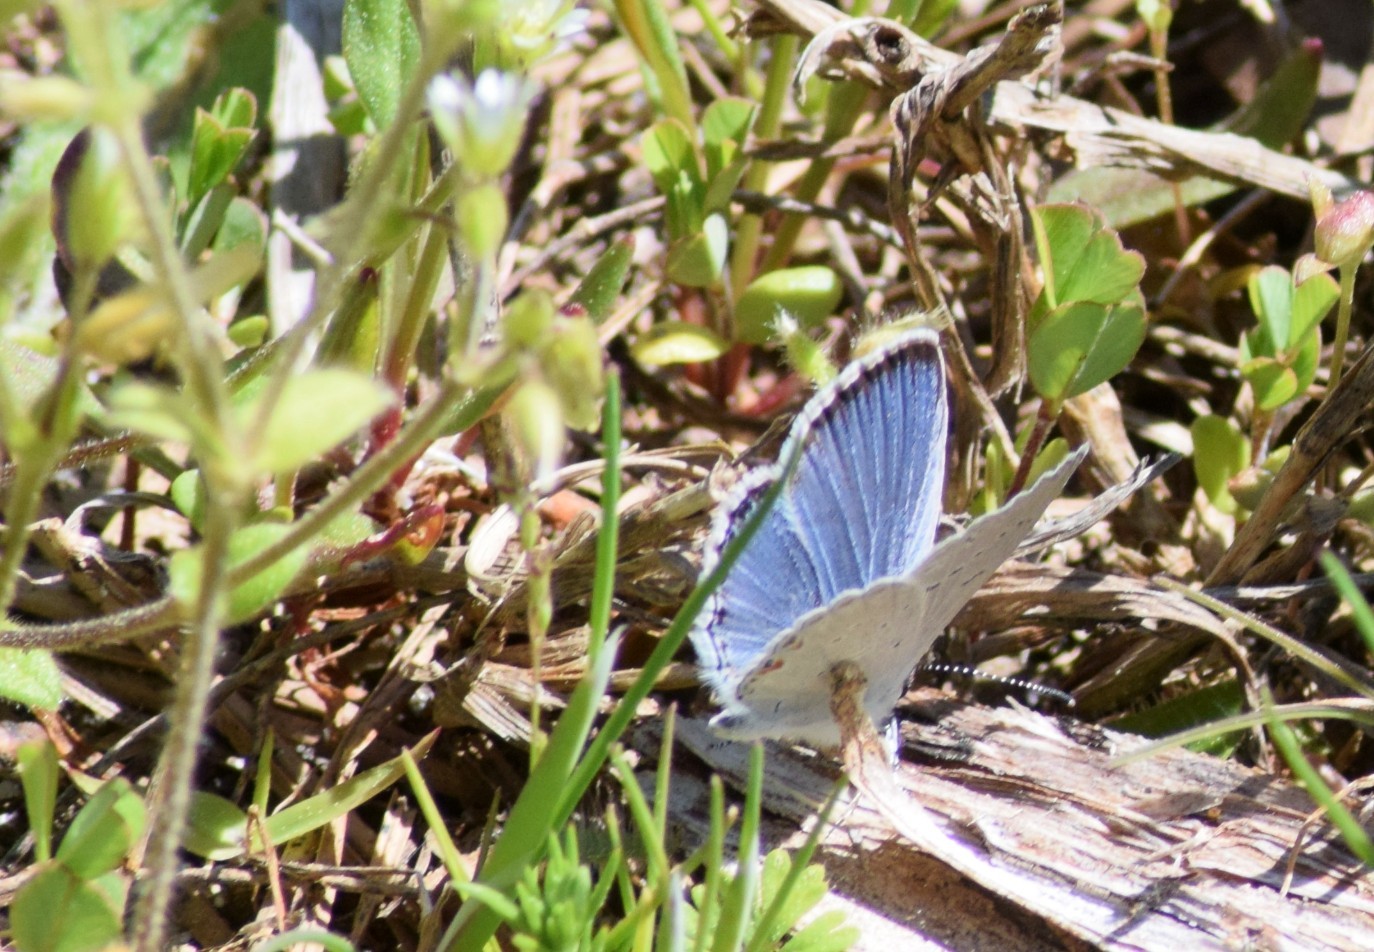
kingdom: Animalia
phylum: Arthropoda
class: Insecta
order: Lepidoptera
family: Lycaenidae
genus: Elkalyce
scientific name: Elkalyce comyntas
